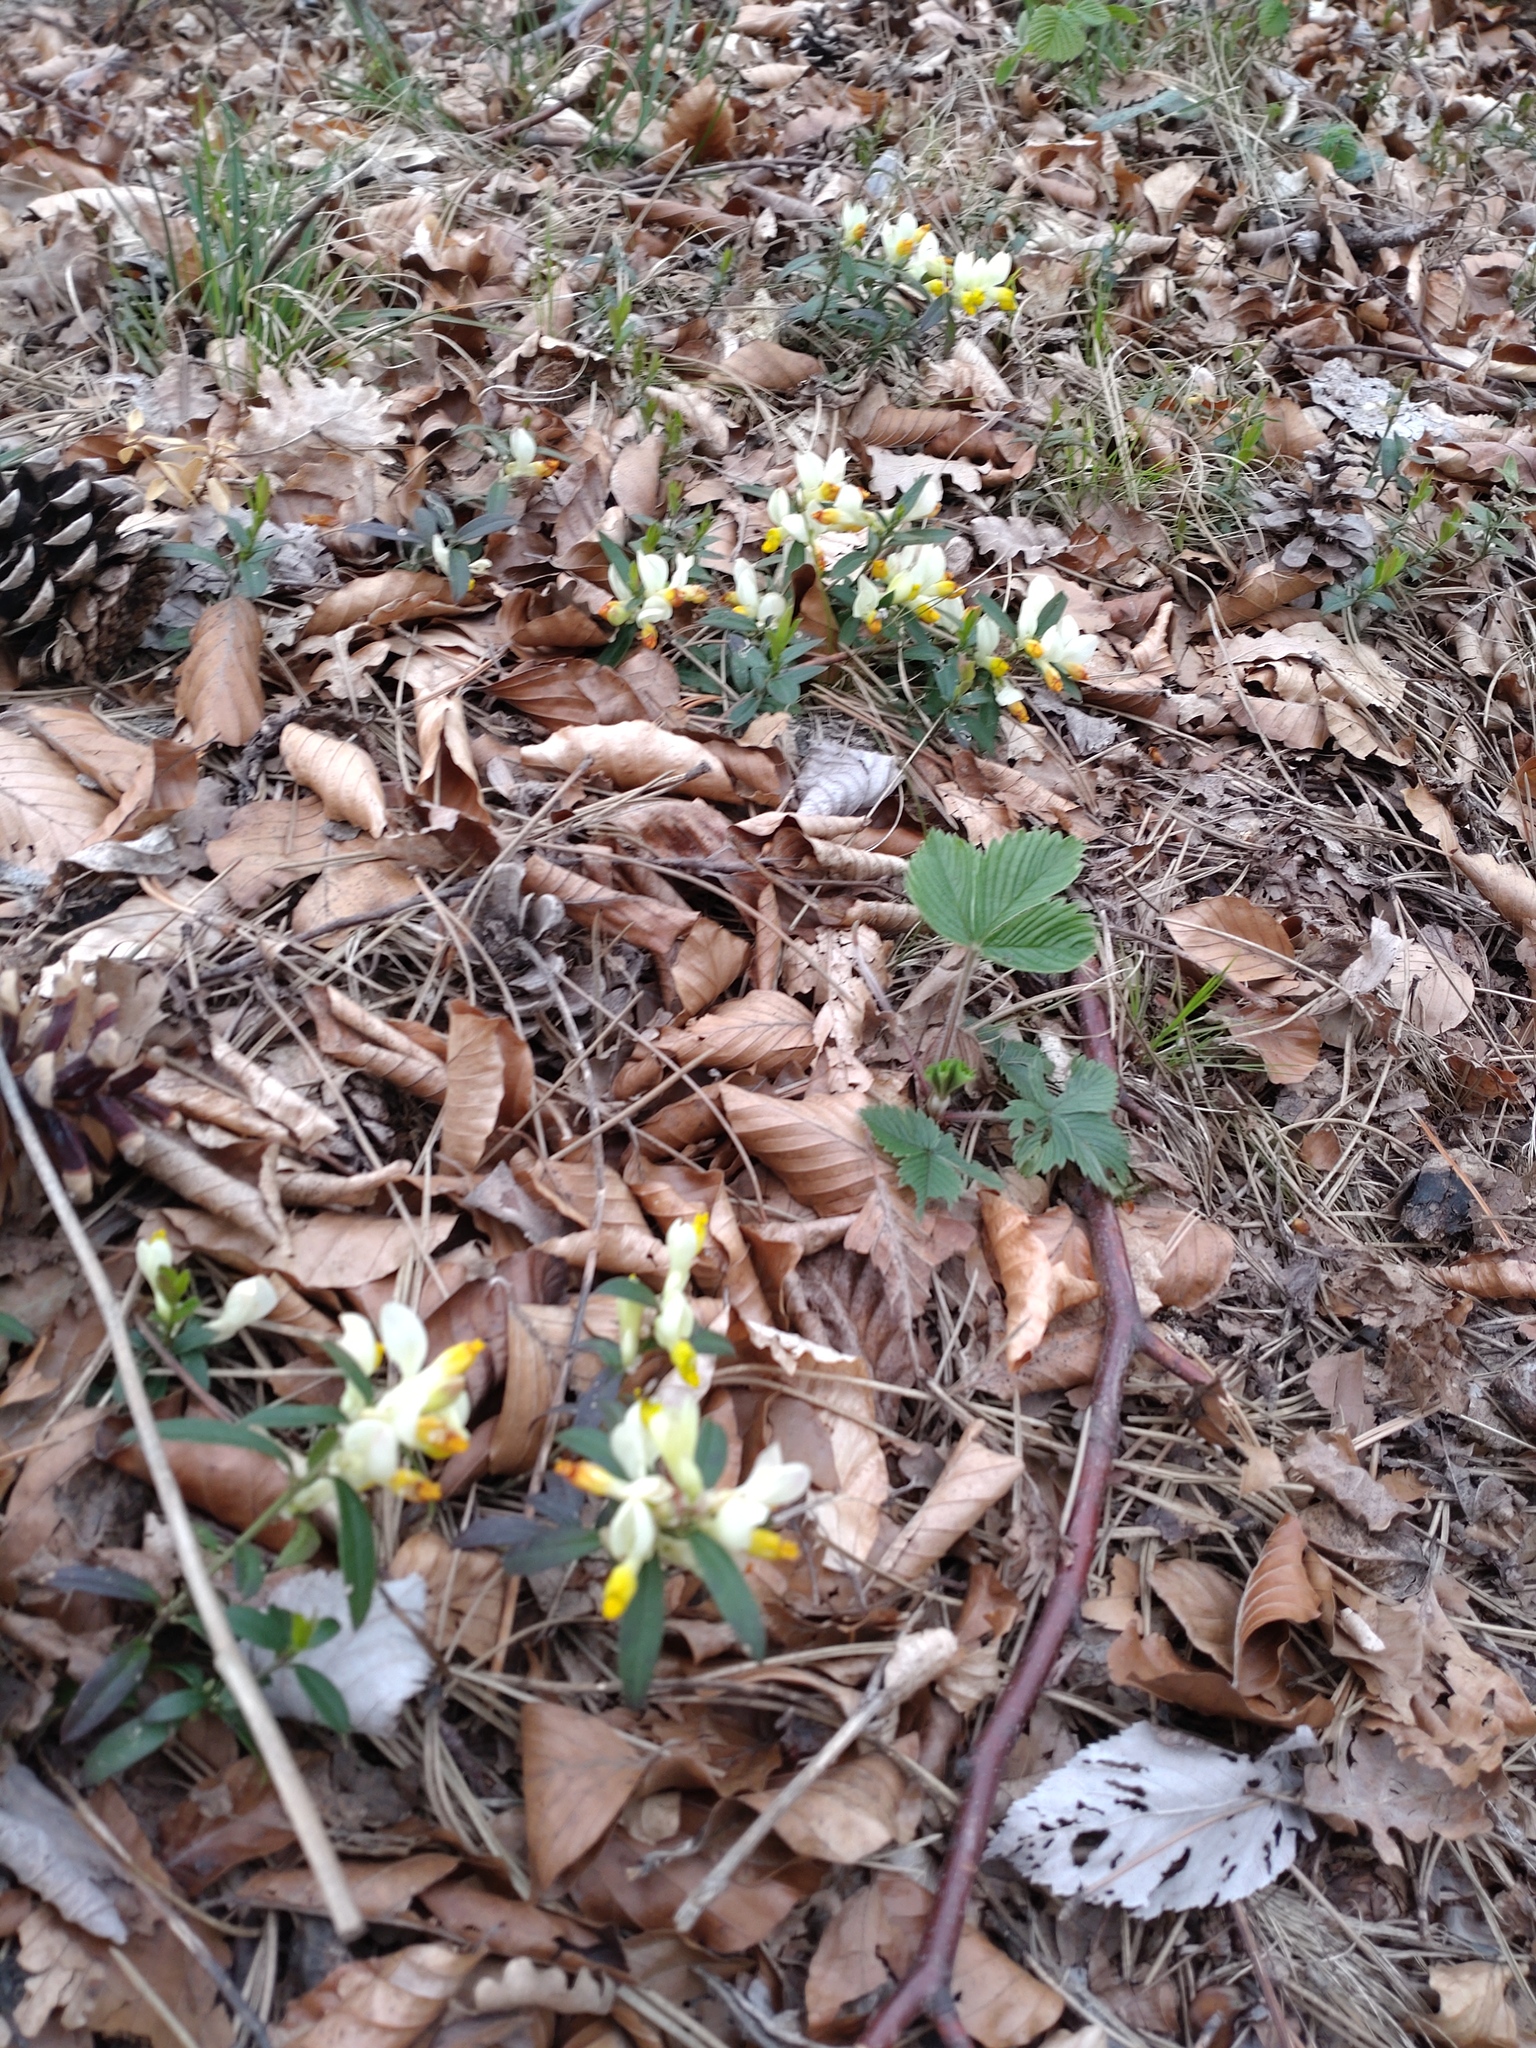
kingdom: Plantae
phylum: Tracheophyta
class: Magnoliopsida
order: Fabales
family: Polygalaceae
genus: Polygaloides
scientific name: Polygaloides chamaebuxus
